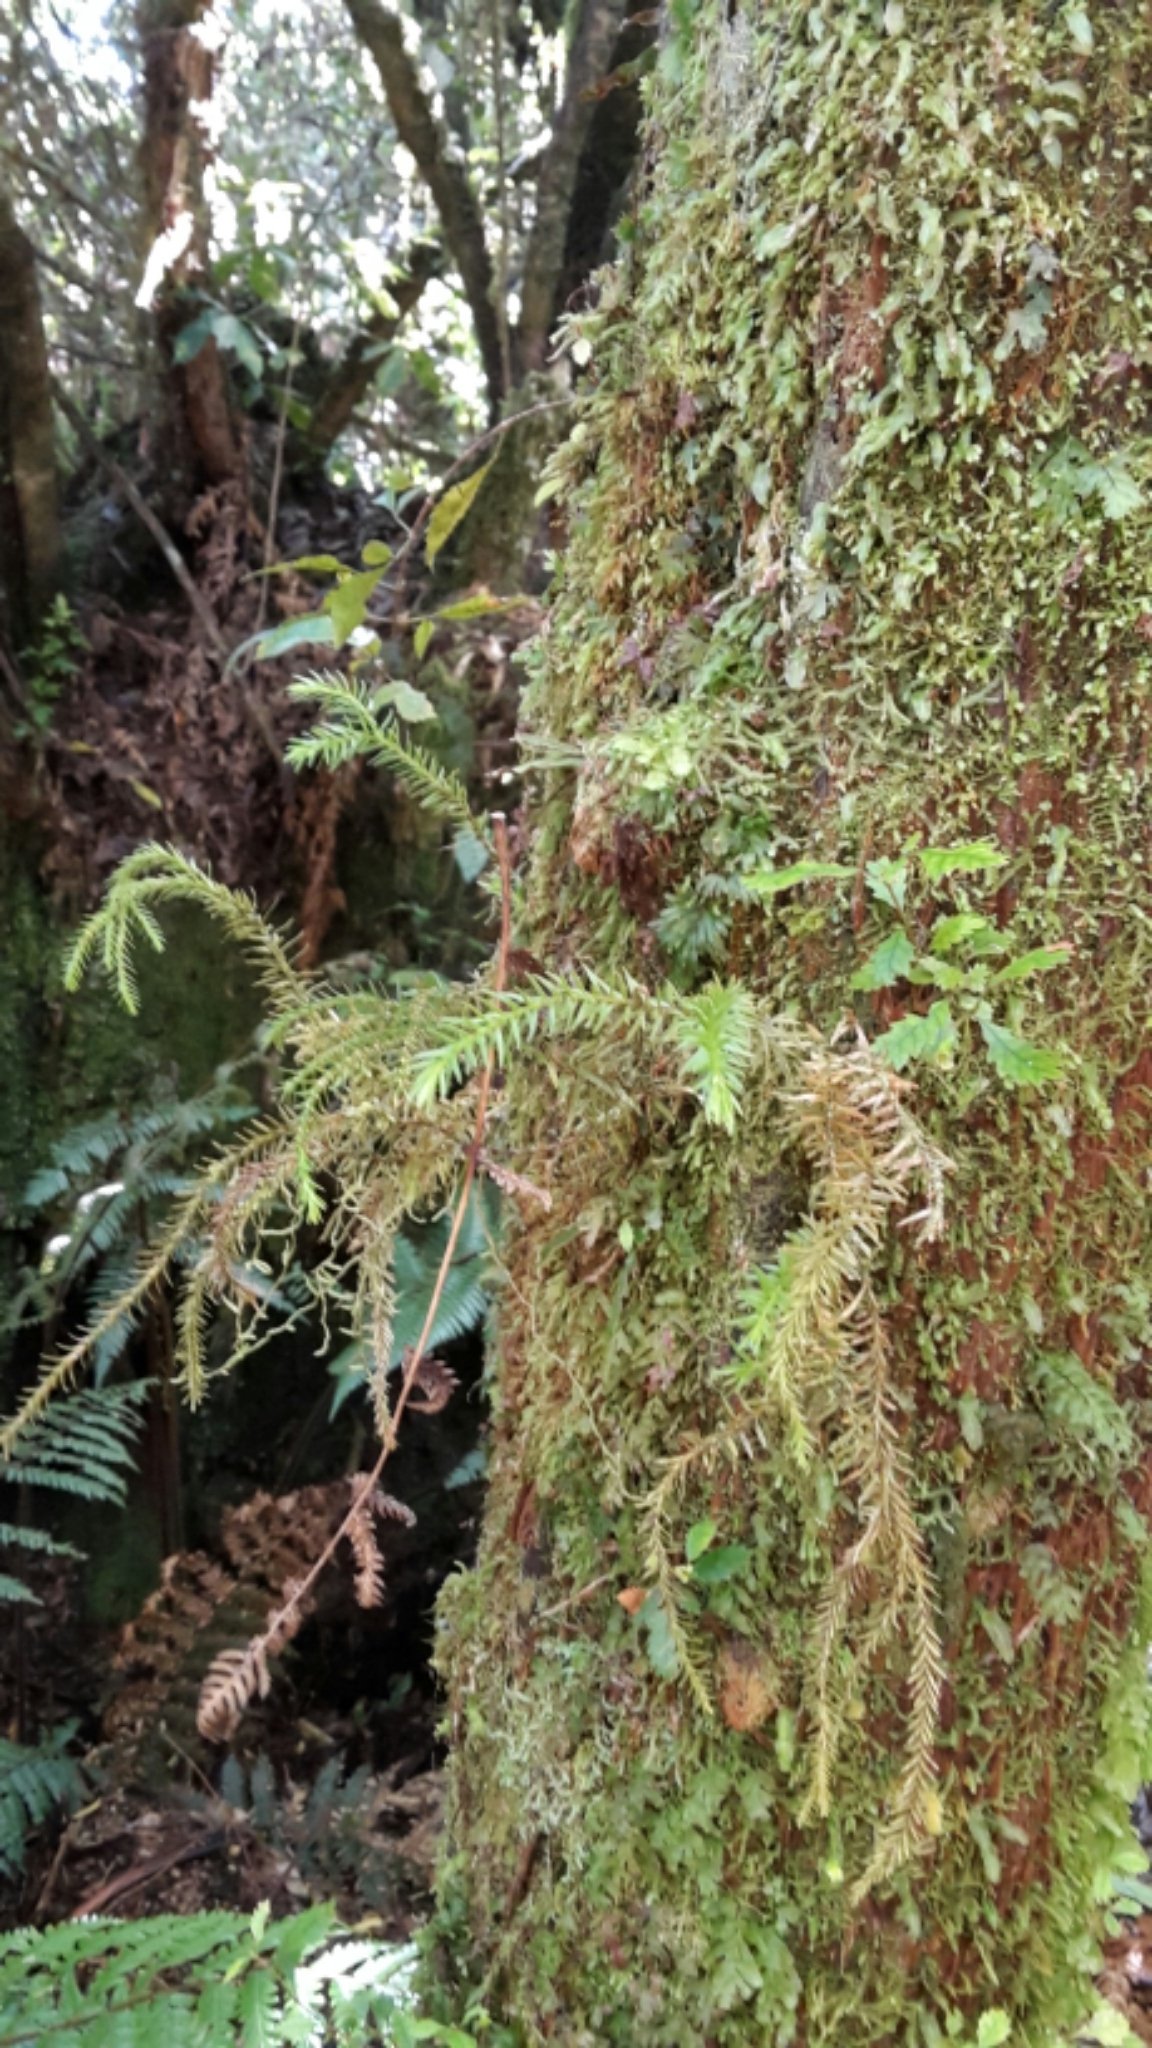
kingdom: Plantae
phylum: Tracheophyta
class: Lycopodiopsida
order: Lycopodiales
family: Lycopodiaceae
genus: Phlegmariurus
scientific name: Phlegmariurus varius
